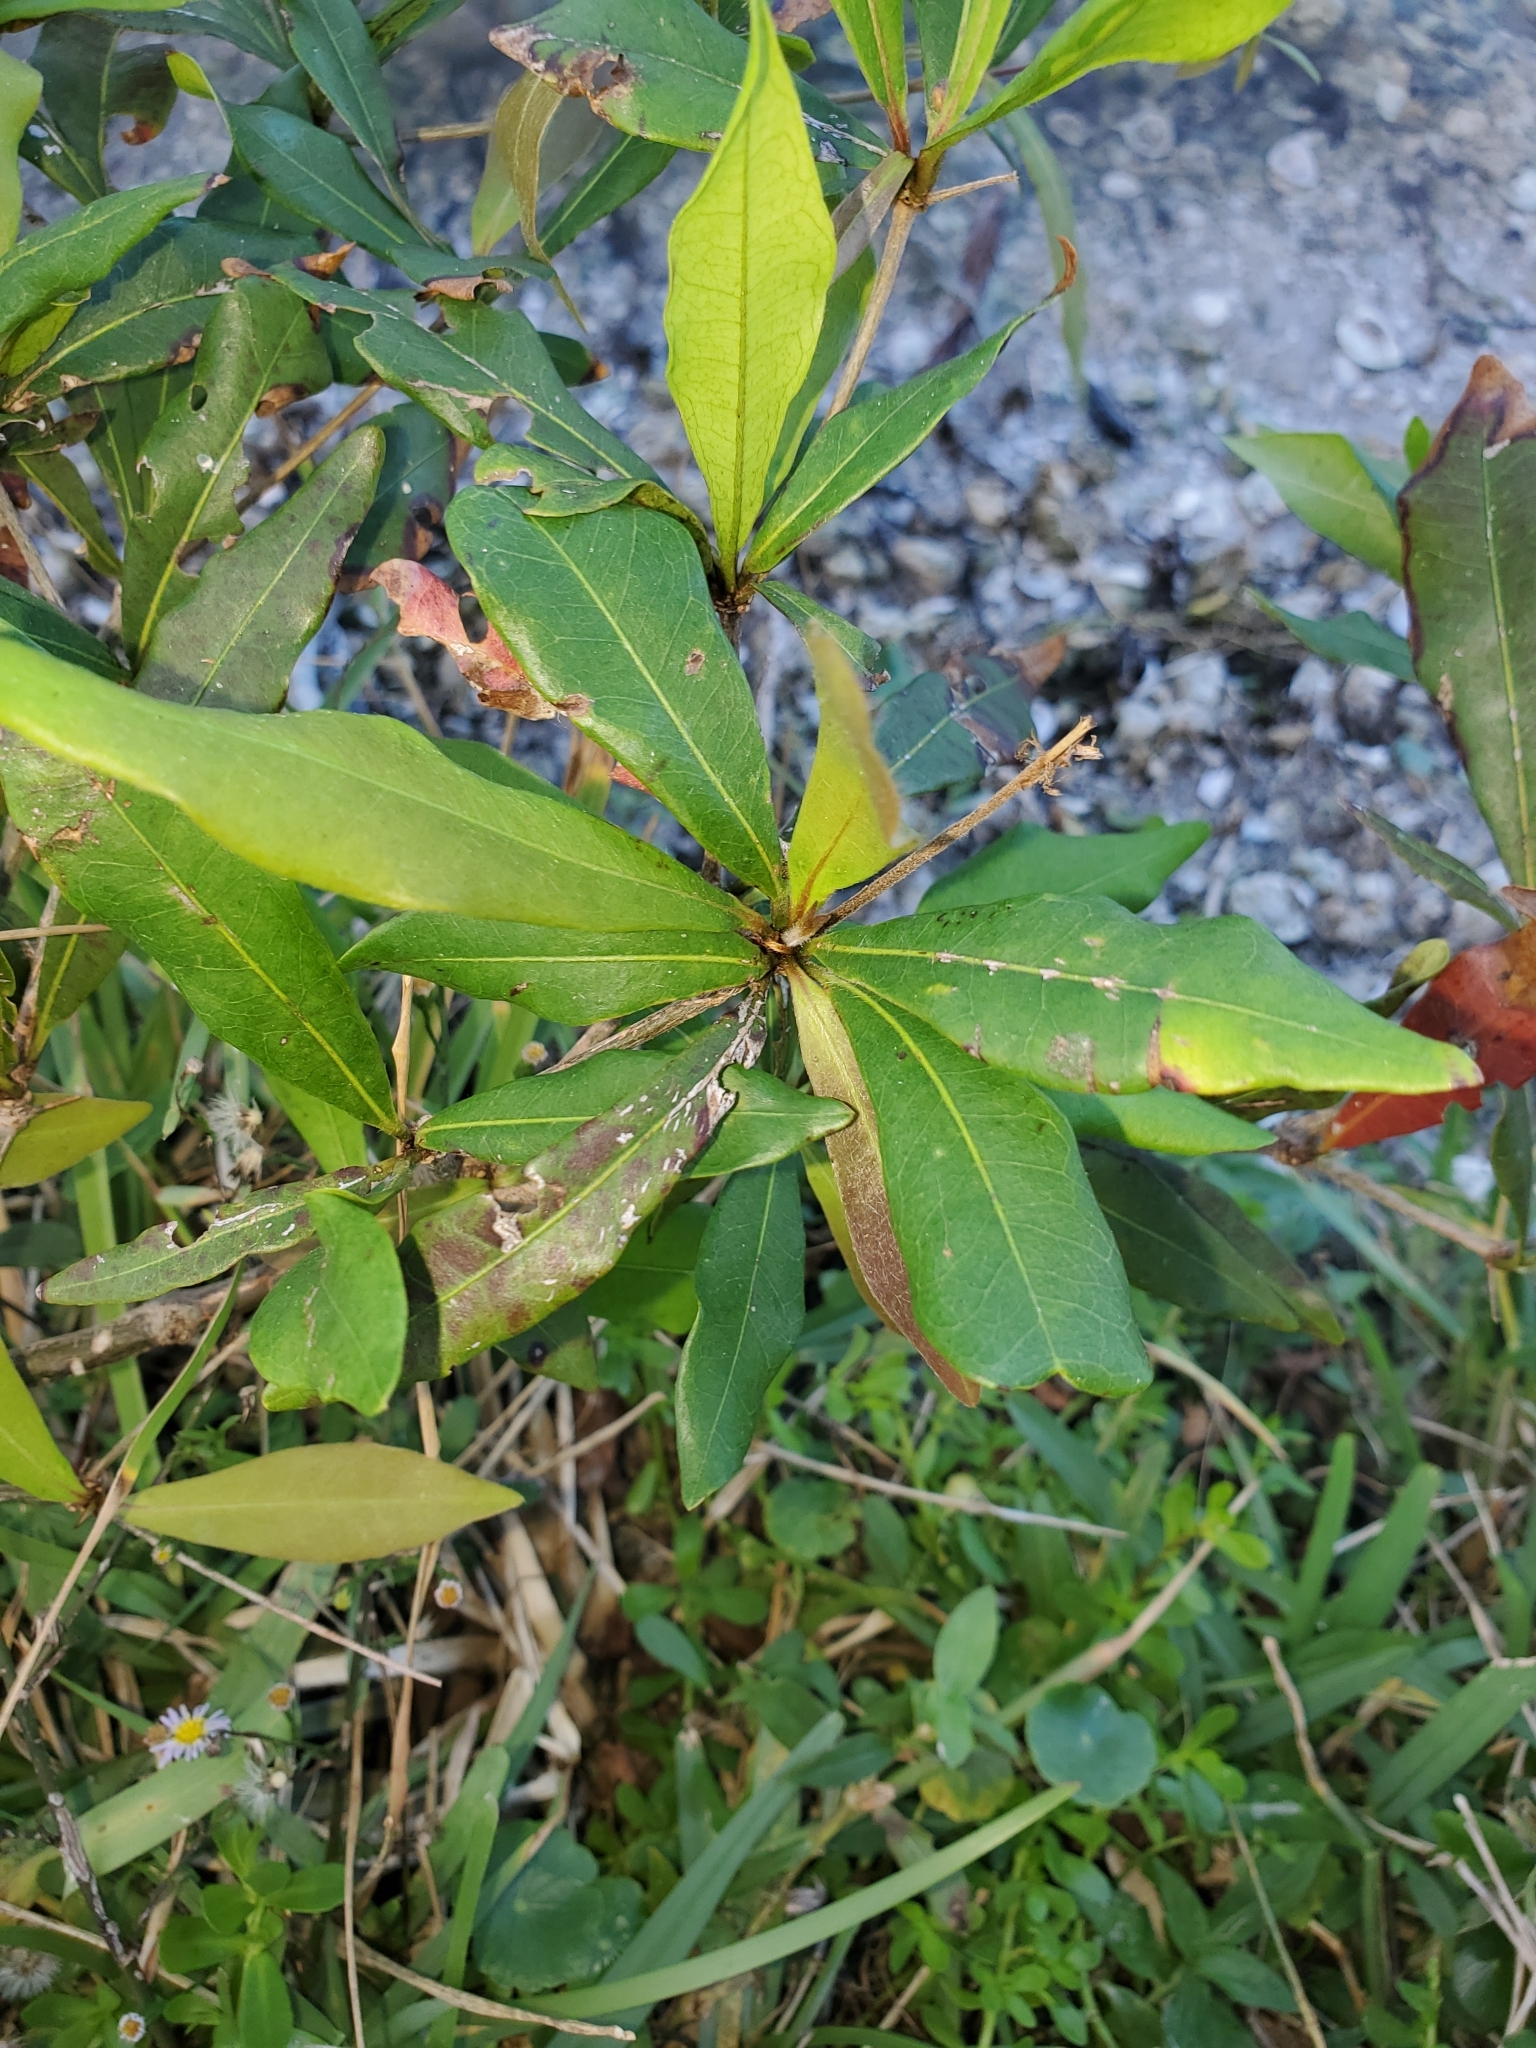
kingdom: Plantae
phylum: Tracheophyta
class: Magnoliopsida
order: Myrtales
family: Combretaceae
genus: Terminalia
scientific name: Terminalia buceras
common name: Black-olive
